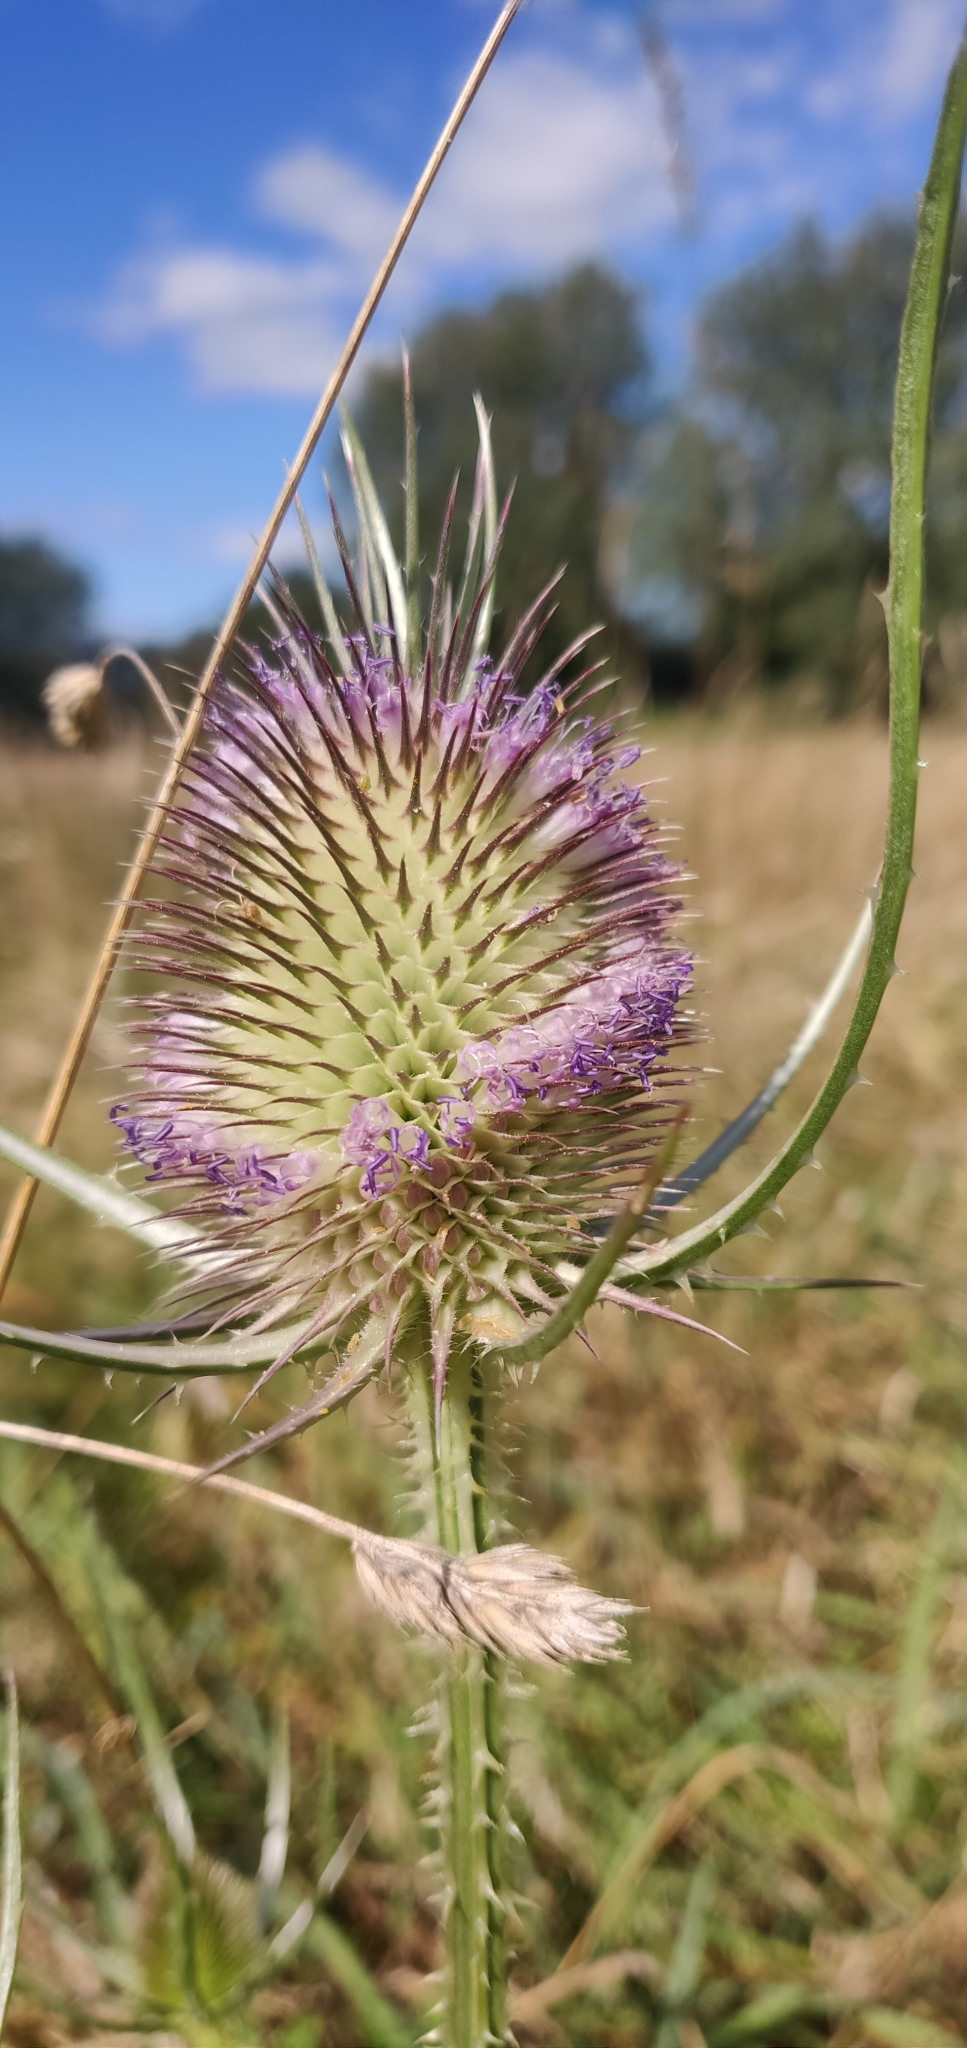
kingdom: Plantae
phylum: Tracheophyta
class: Magnoliopsida
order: Dipsacales
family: Caprifoliaceae
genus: Dipsacus
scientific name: Dipsacus fullonum
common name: Teasel
